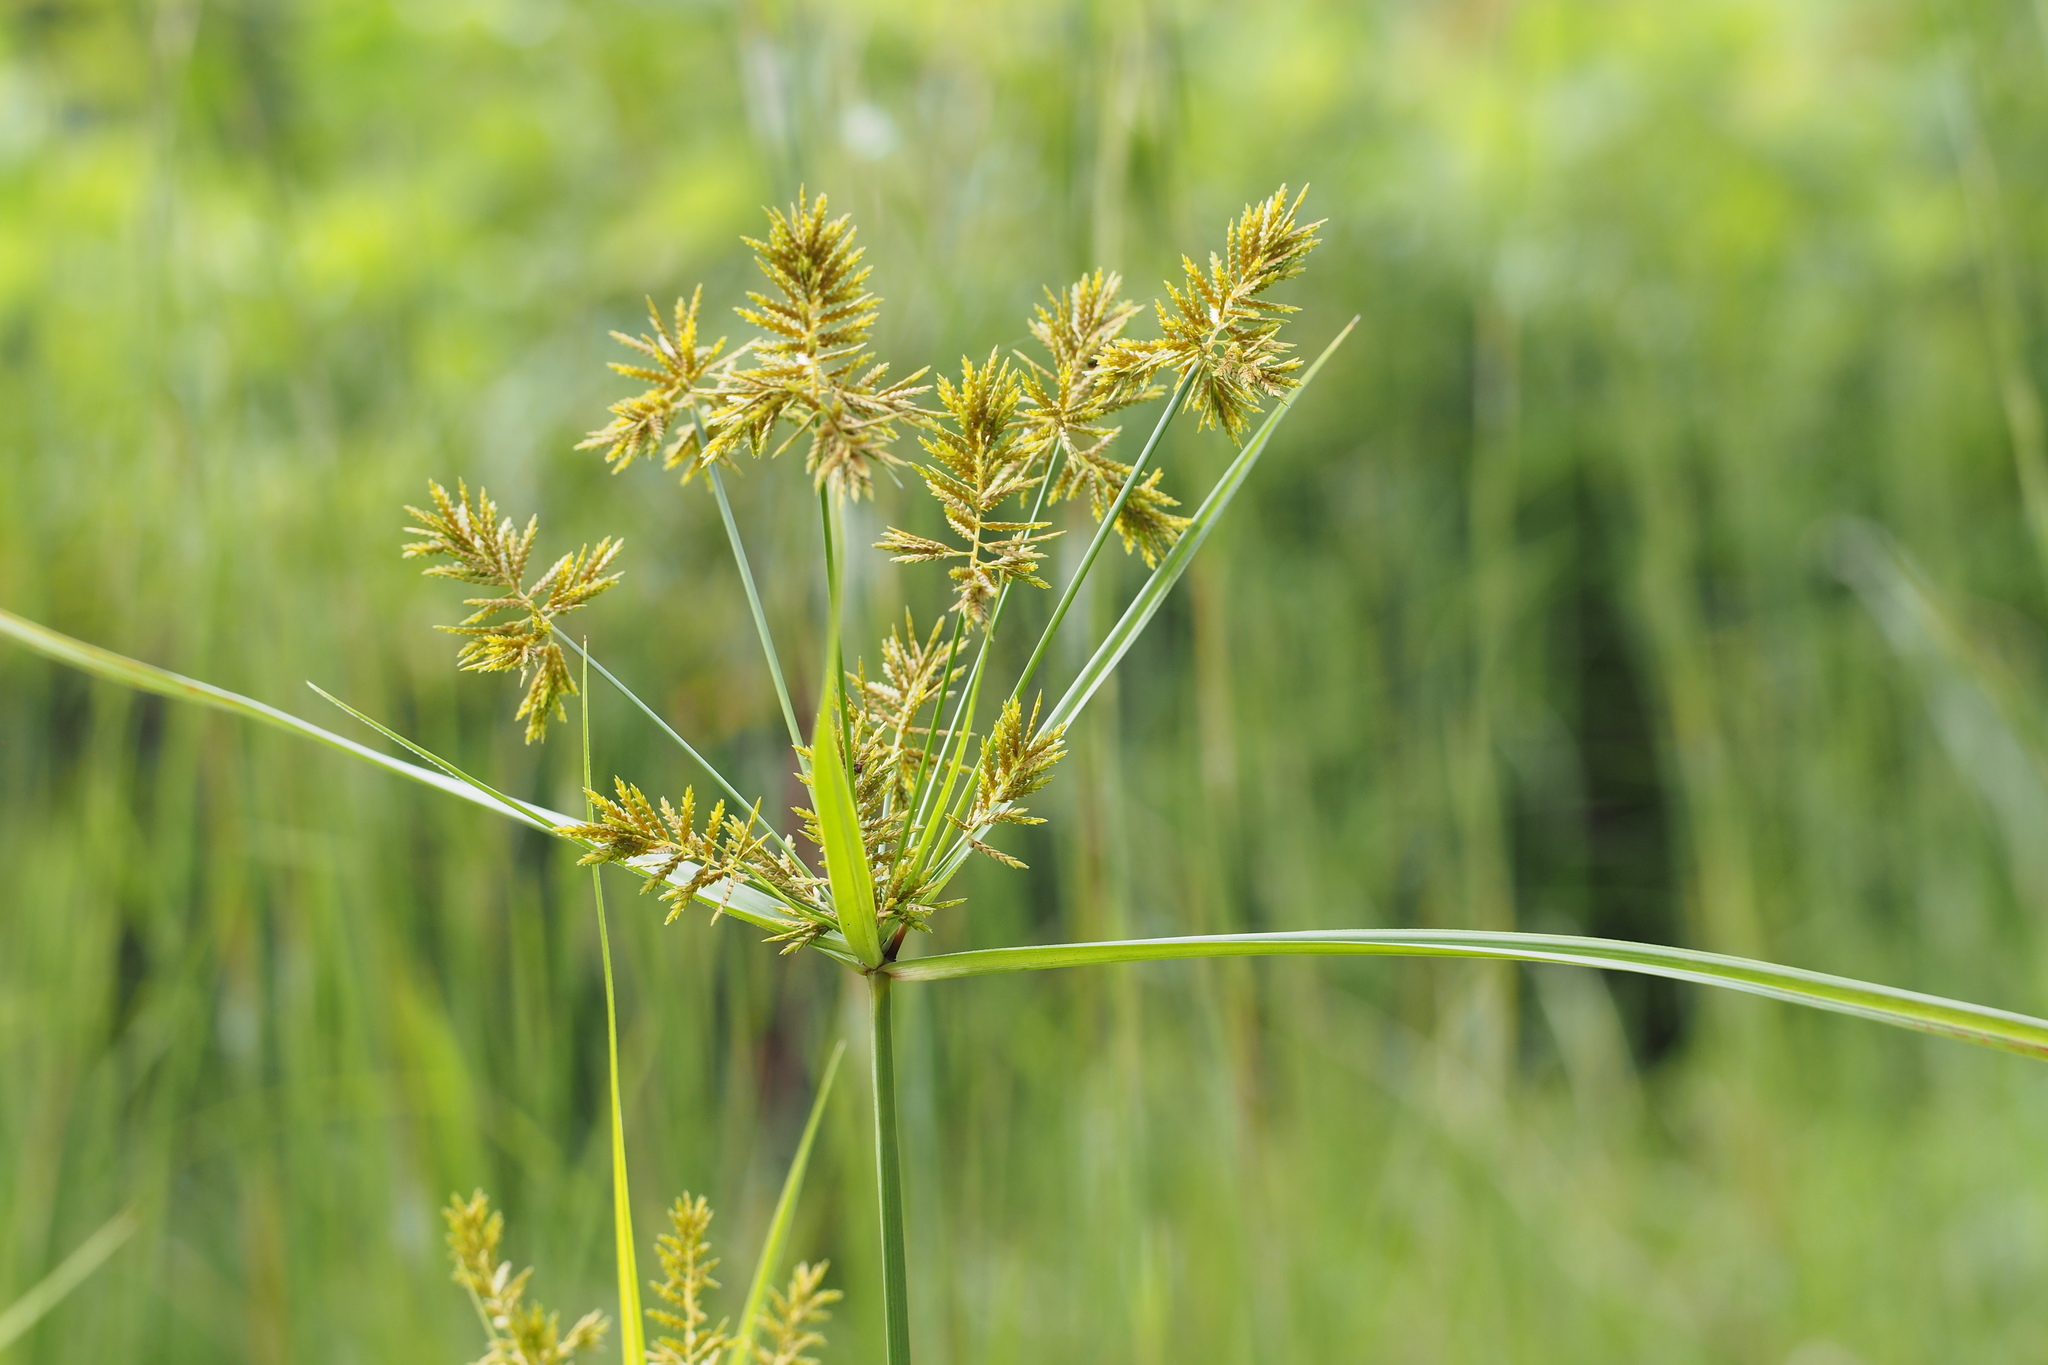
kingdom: Plantae
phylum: Tracheophyta
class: Liliopsida
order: Poales
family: Cyperaceae
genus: Cyperus
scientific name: Cyperus microiria
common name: Asian flatsedge
